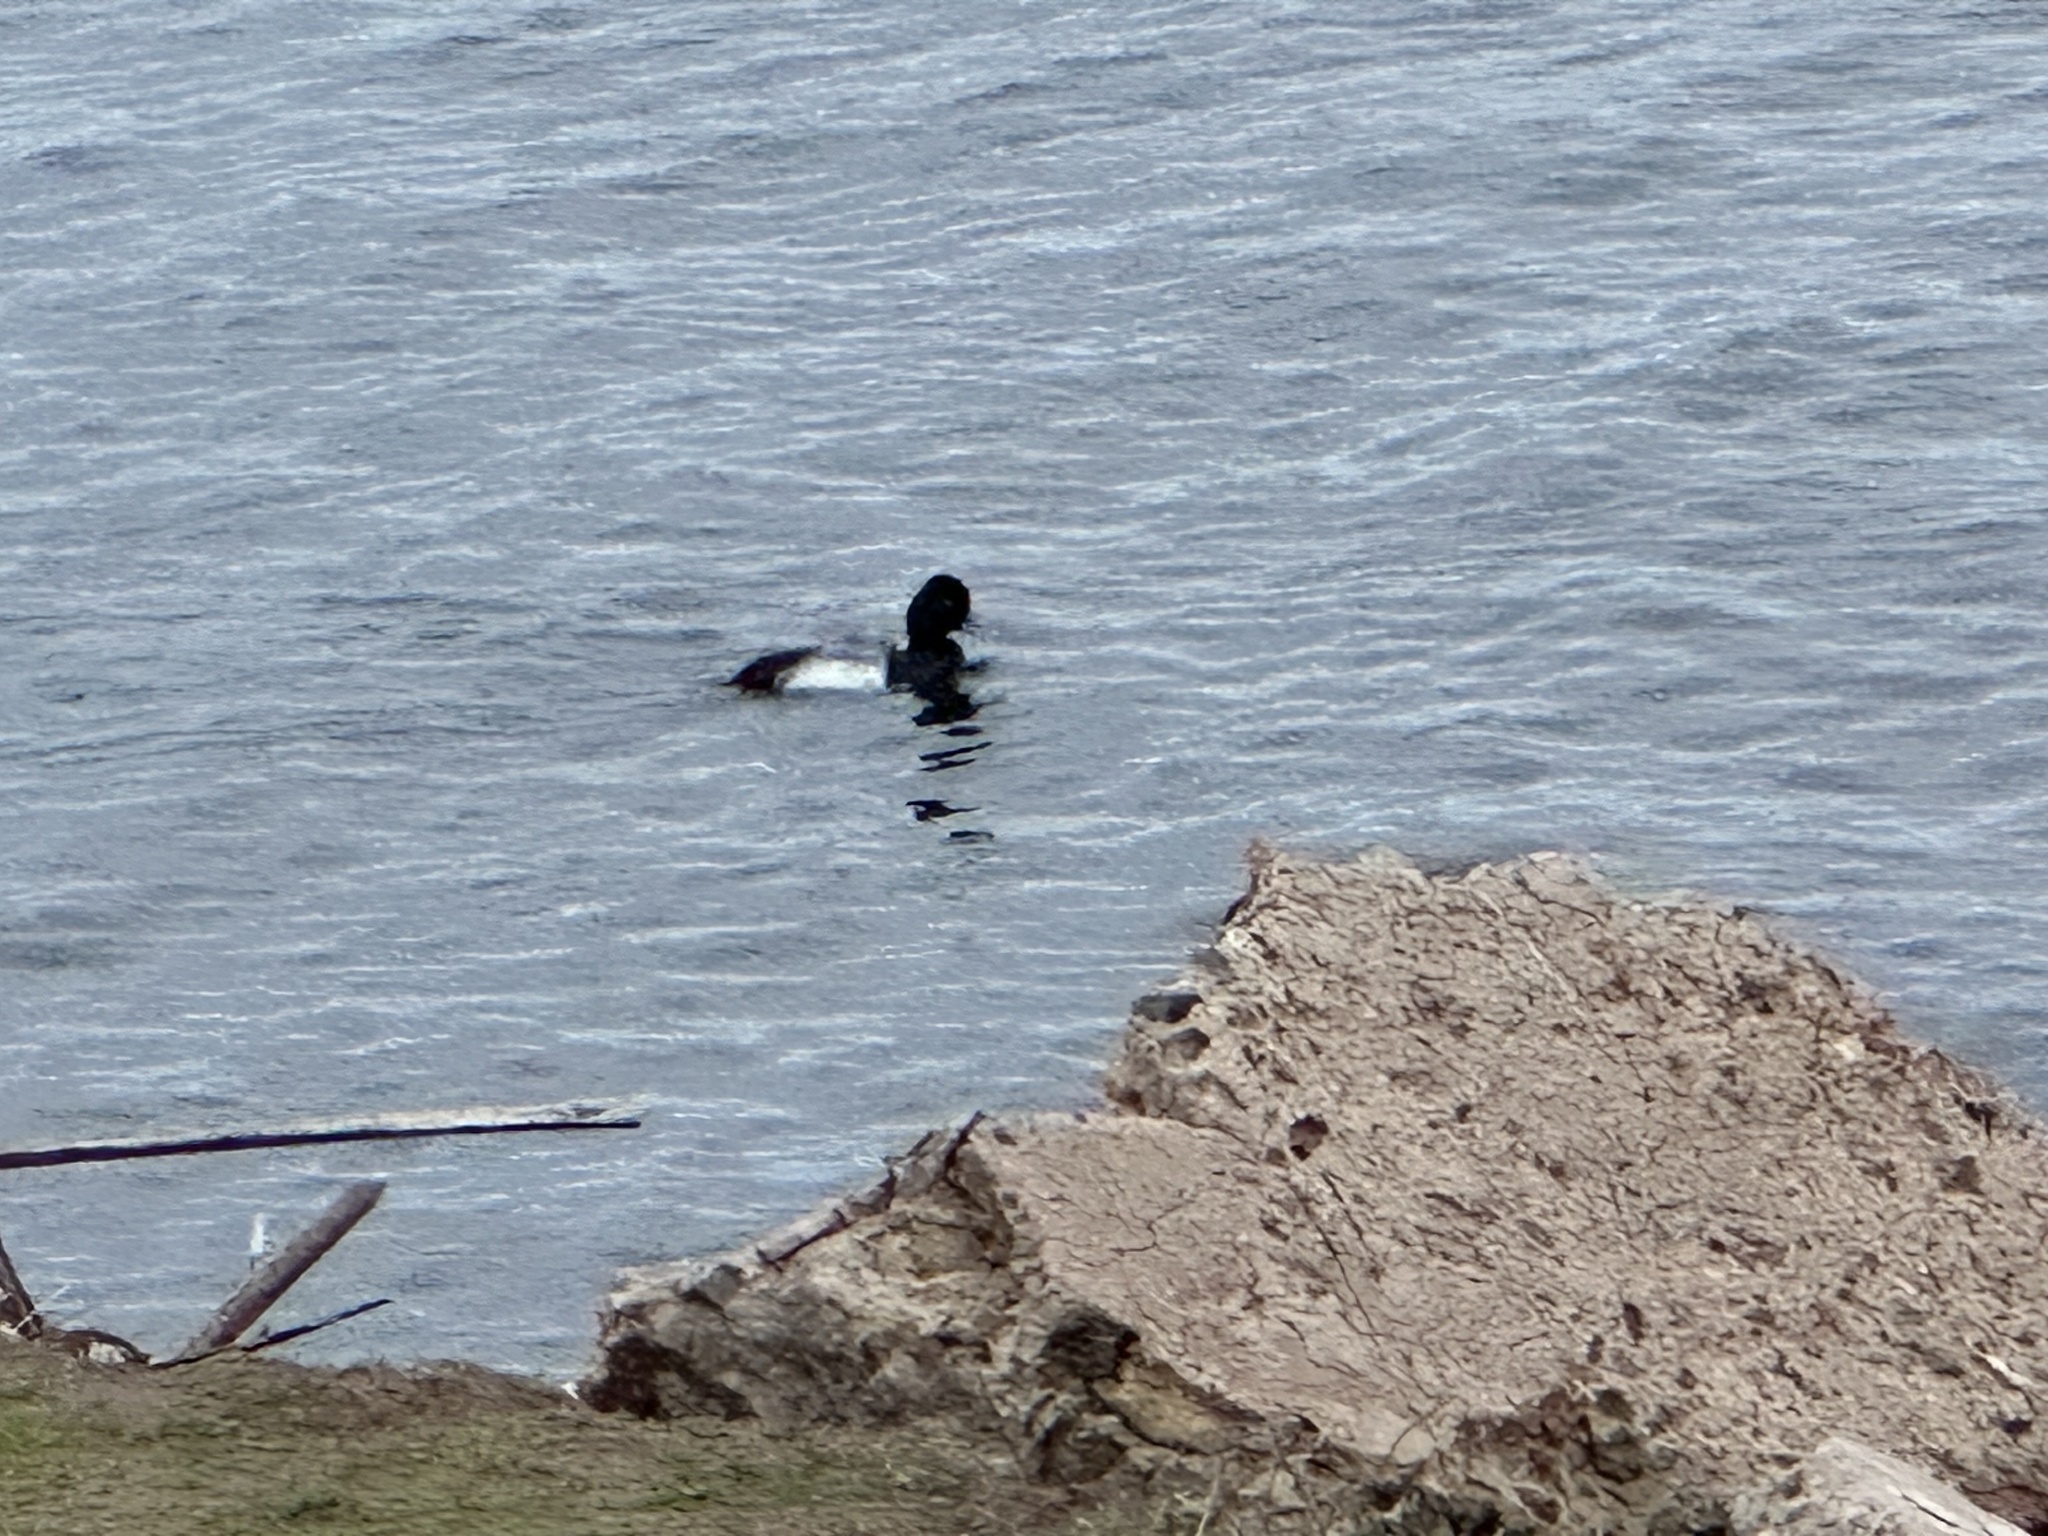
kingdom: Animalia
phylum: Chordata
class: Aves
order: Anseriformes
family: Anatidae
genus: Aythya
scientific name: Aythya affinis
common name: Lesser scaup
